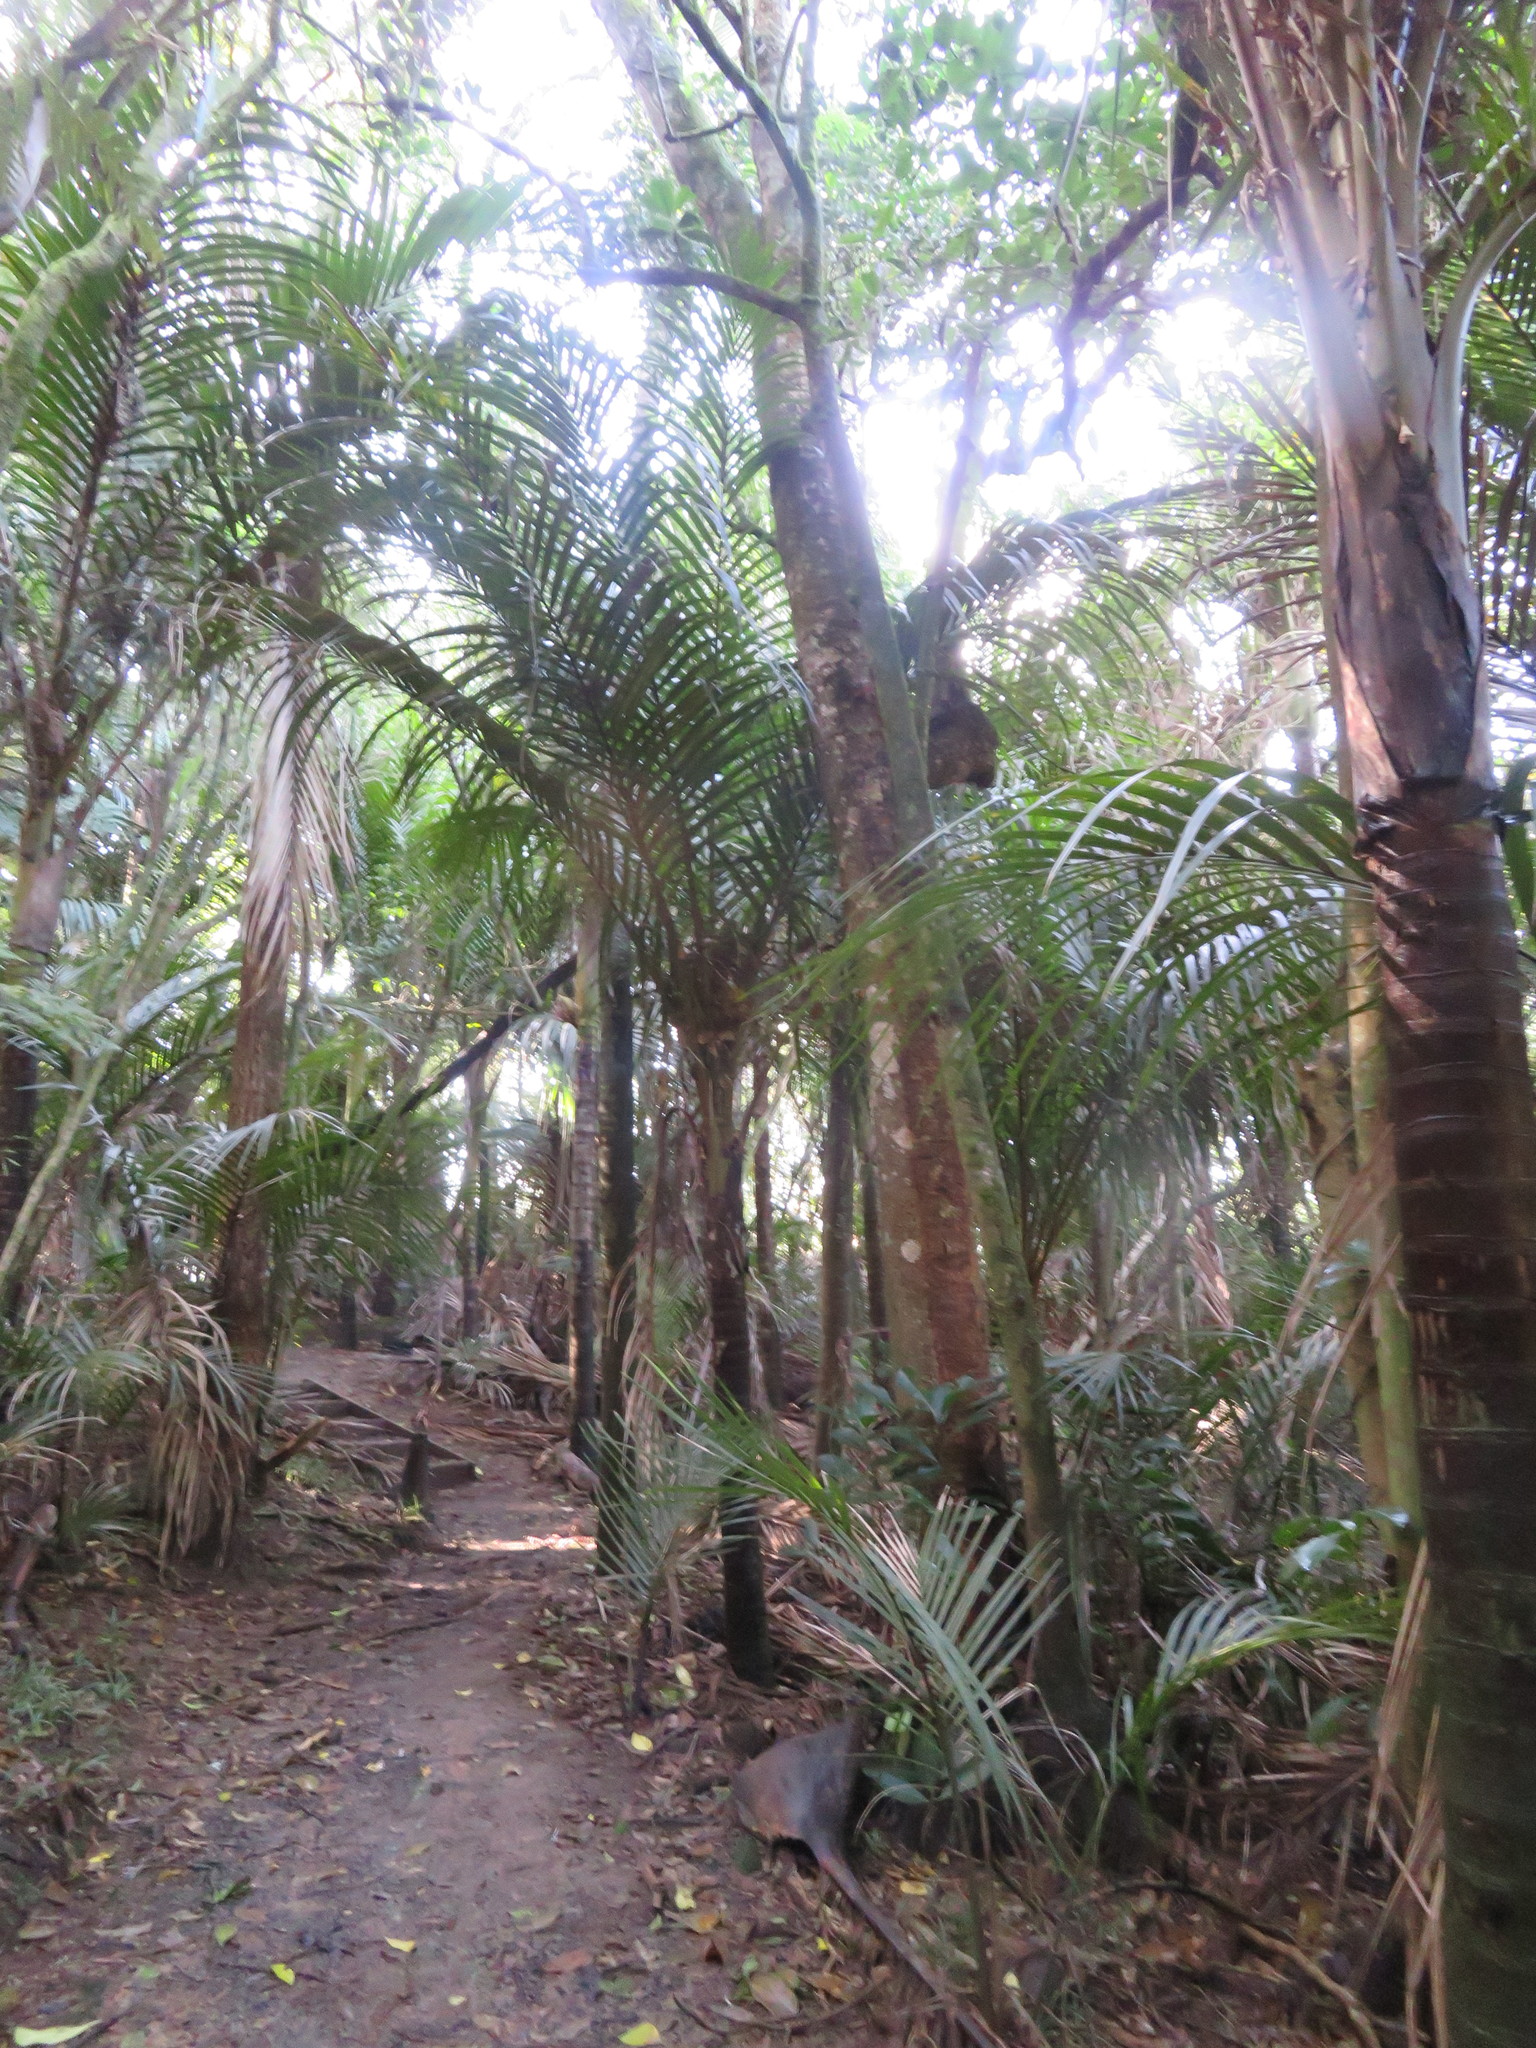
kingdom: Plantae
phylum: Tracheophyta
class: Liliopsida
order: Arecales
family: Arecaceae
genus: Rhopalostylis
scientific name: Rhopalostylis sapida
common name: Feather-duster palm
